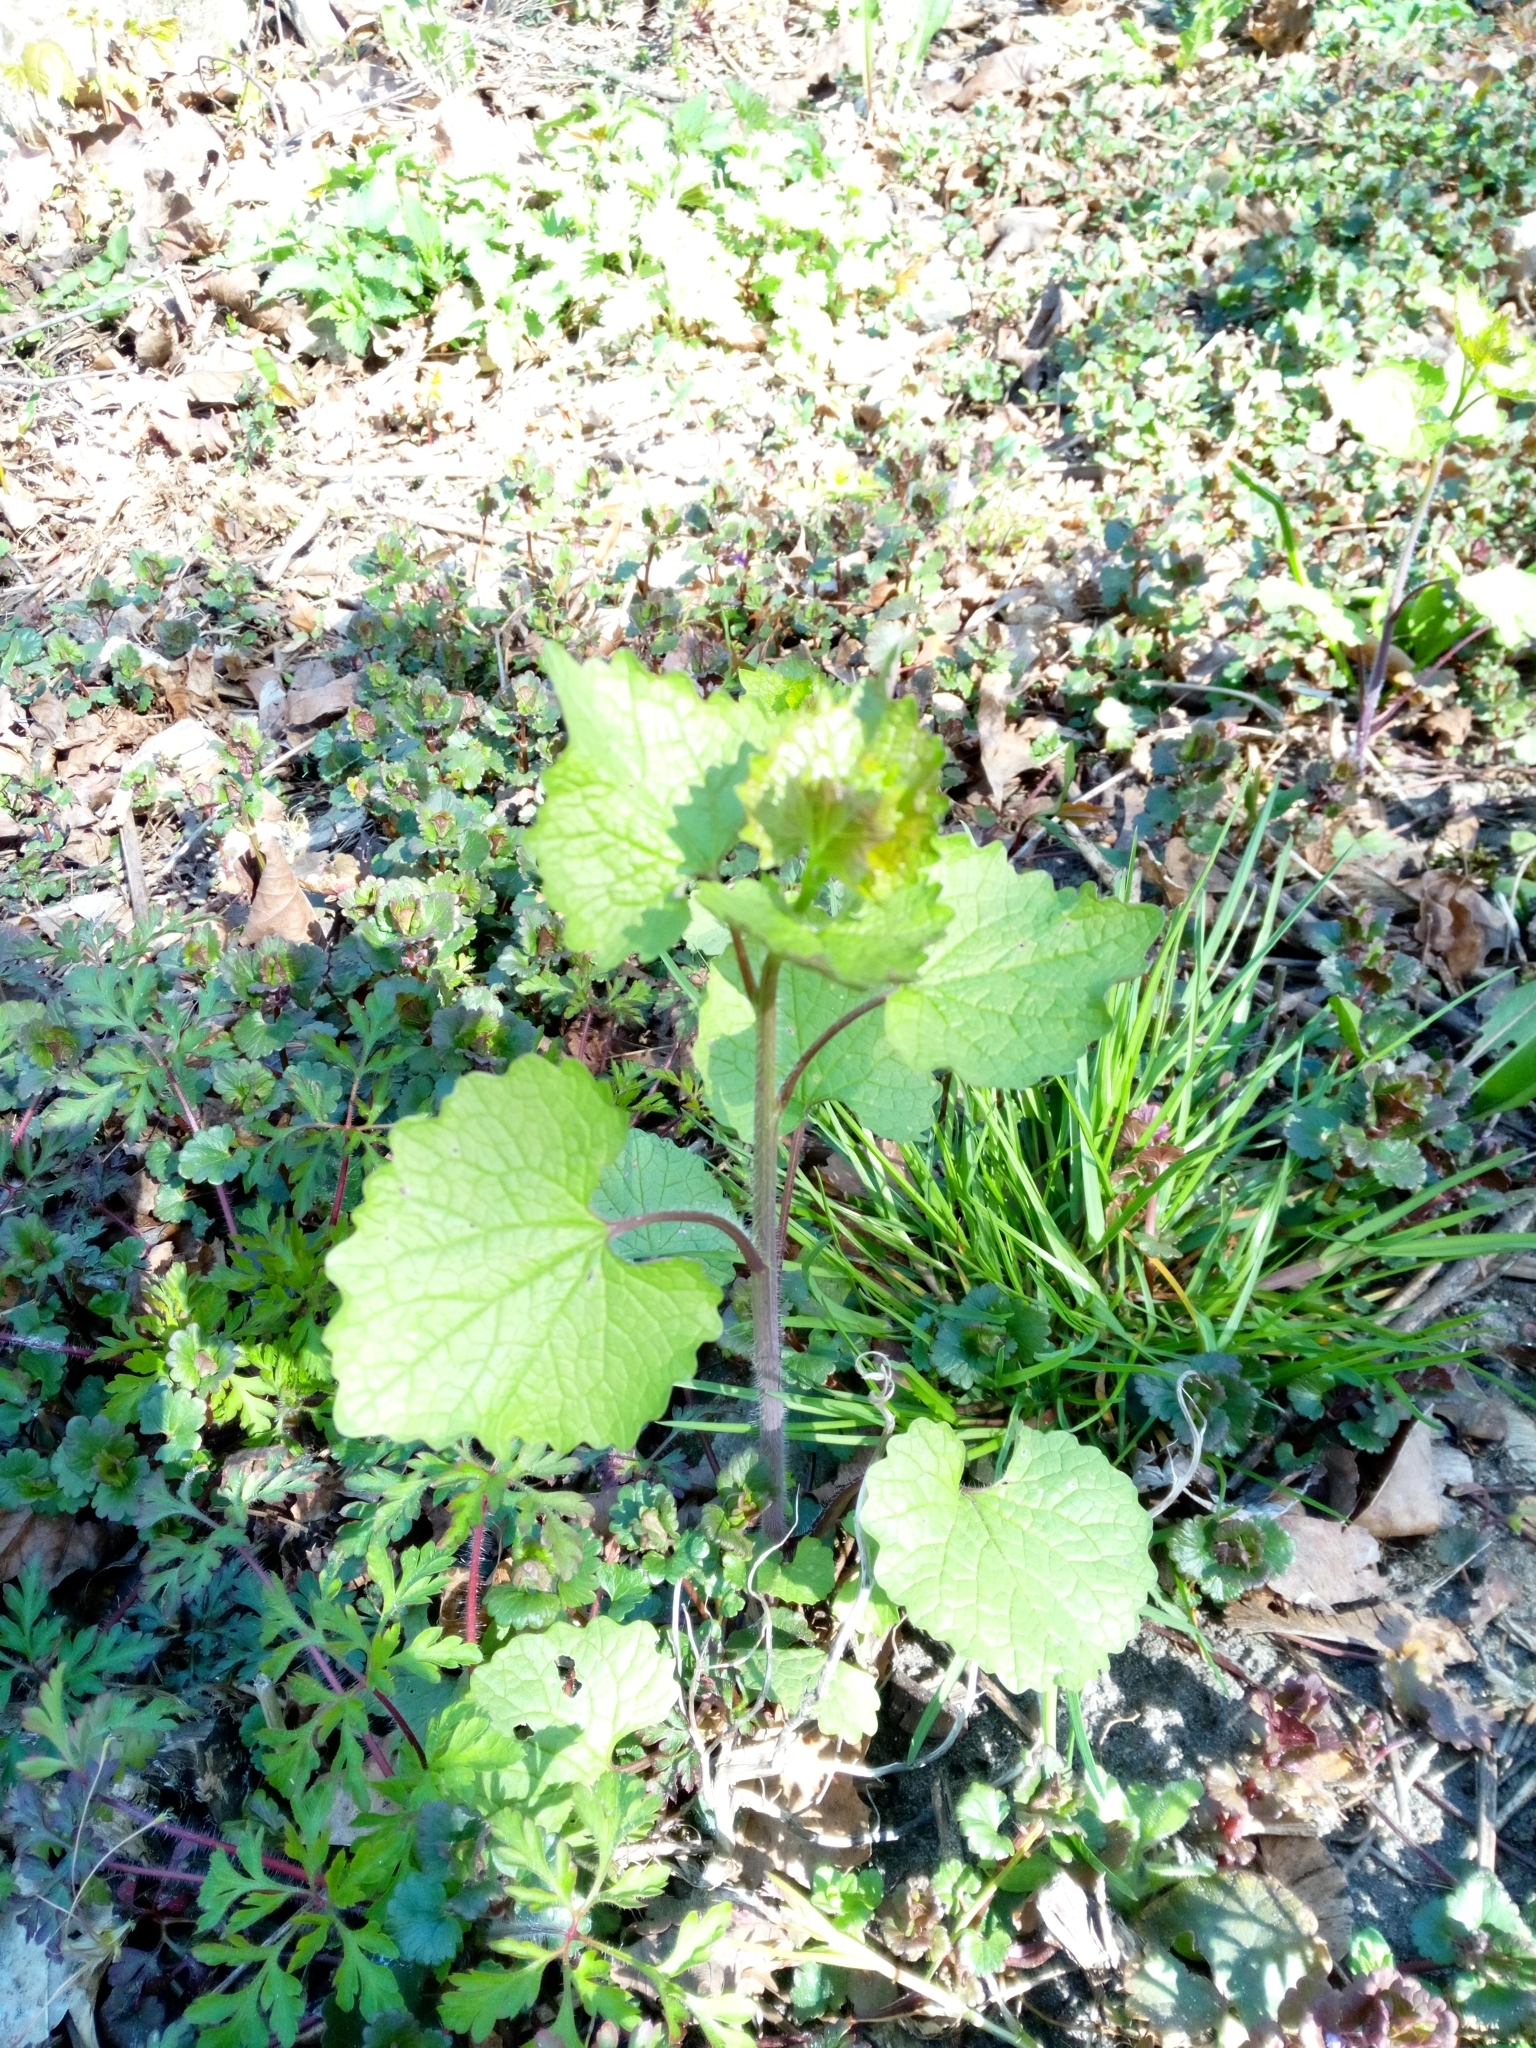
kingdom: Plantae
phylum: Tracheophyta
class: Magnoliopsida
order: Brassicales
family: Brassicaceae
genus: Alliaria
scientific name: Alliaria petiolata
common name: Garlic mustard
